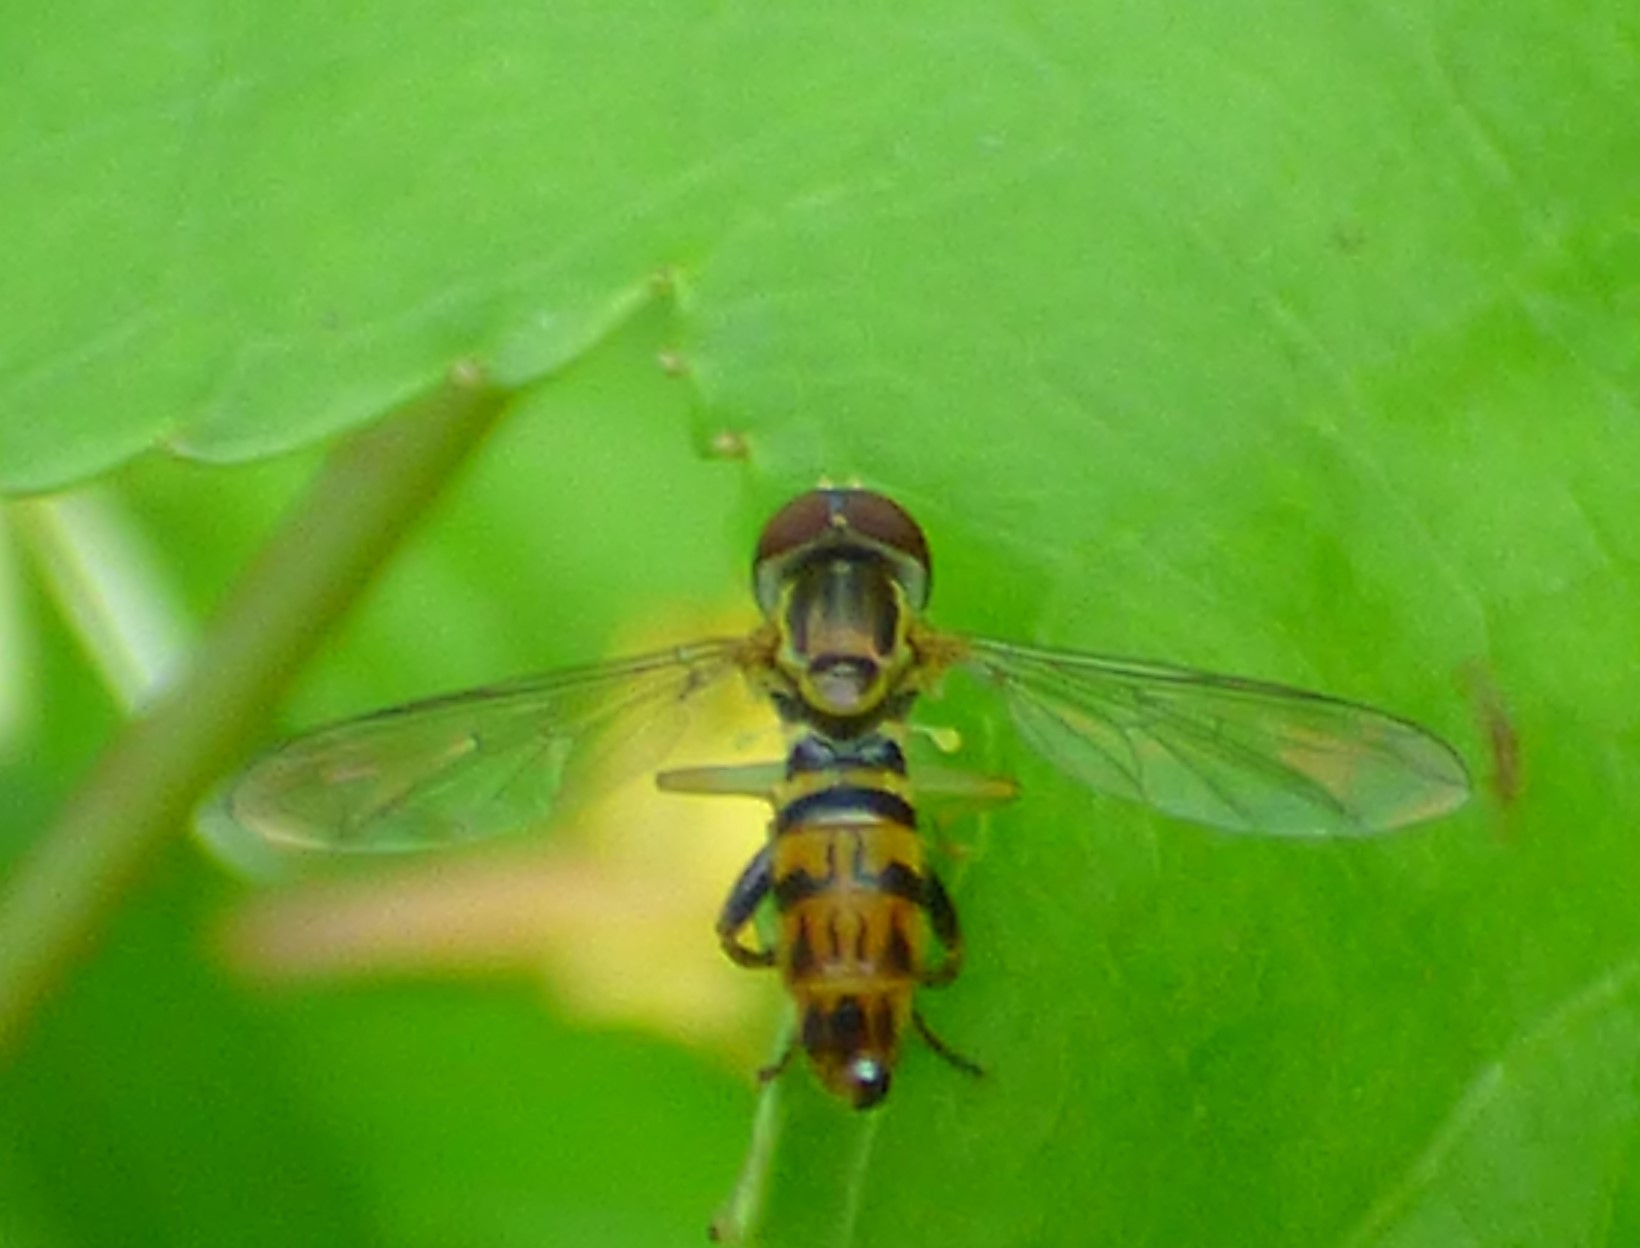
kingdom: Animalia
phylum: Arthropoda
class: Insecta
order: Diptera
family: Syrphidae
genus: Toxomerus
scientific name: Toxomerus geminatus
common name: Eastern calligrapher
